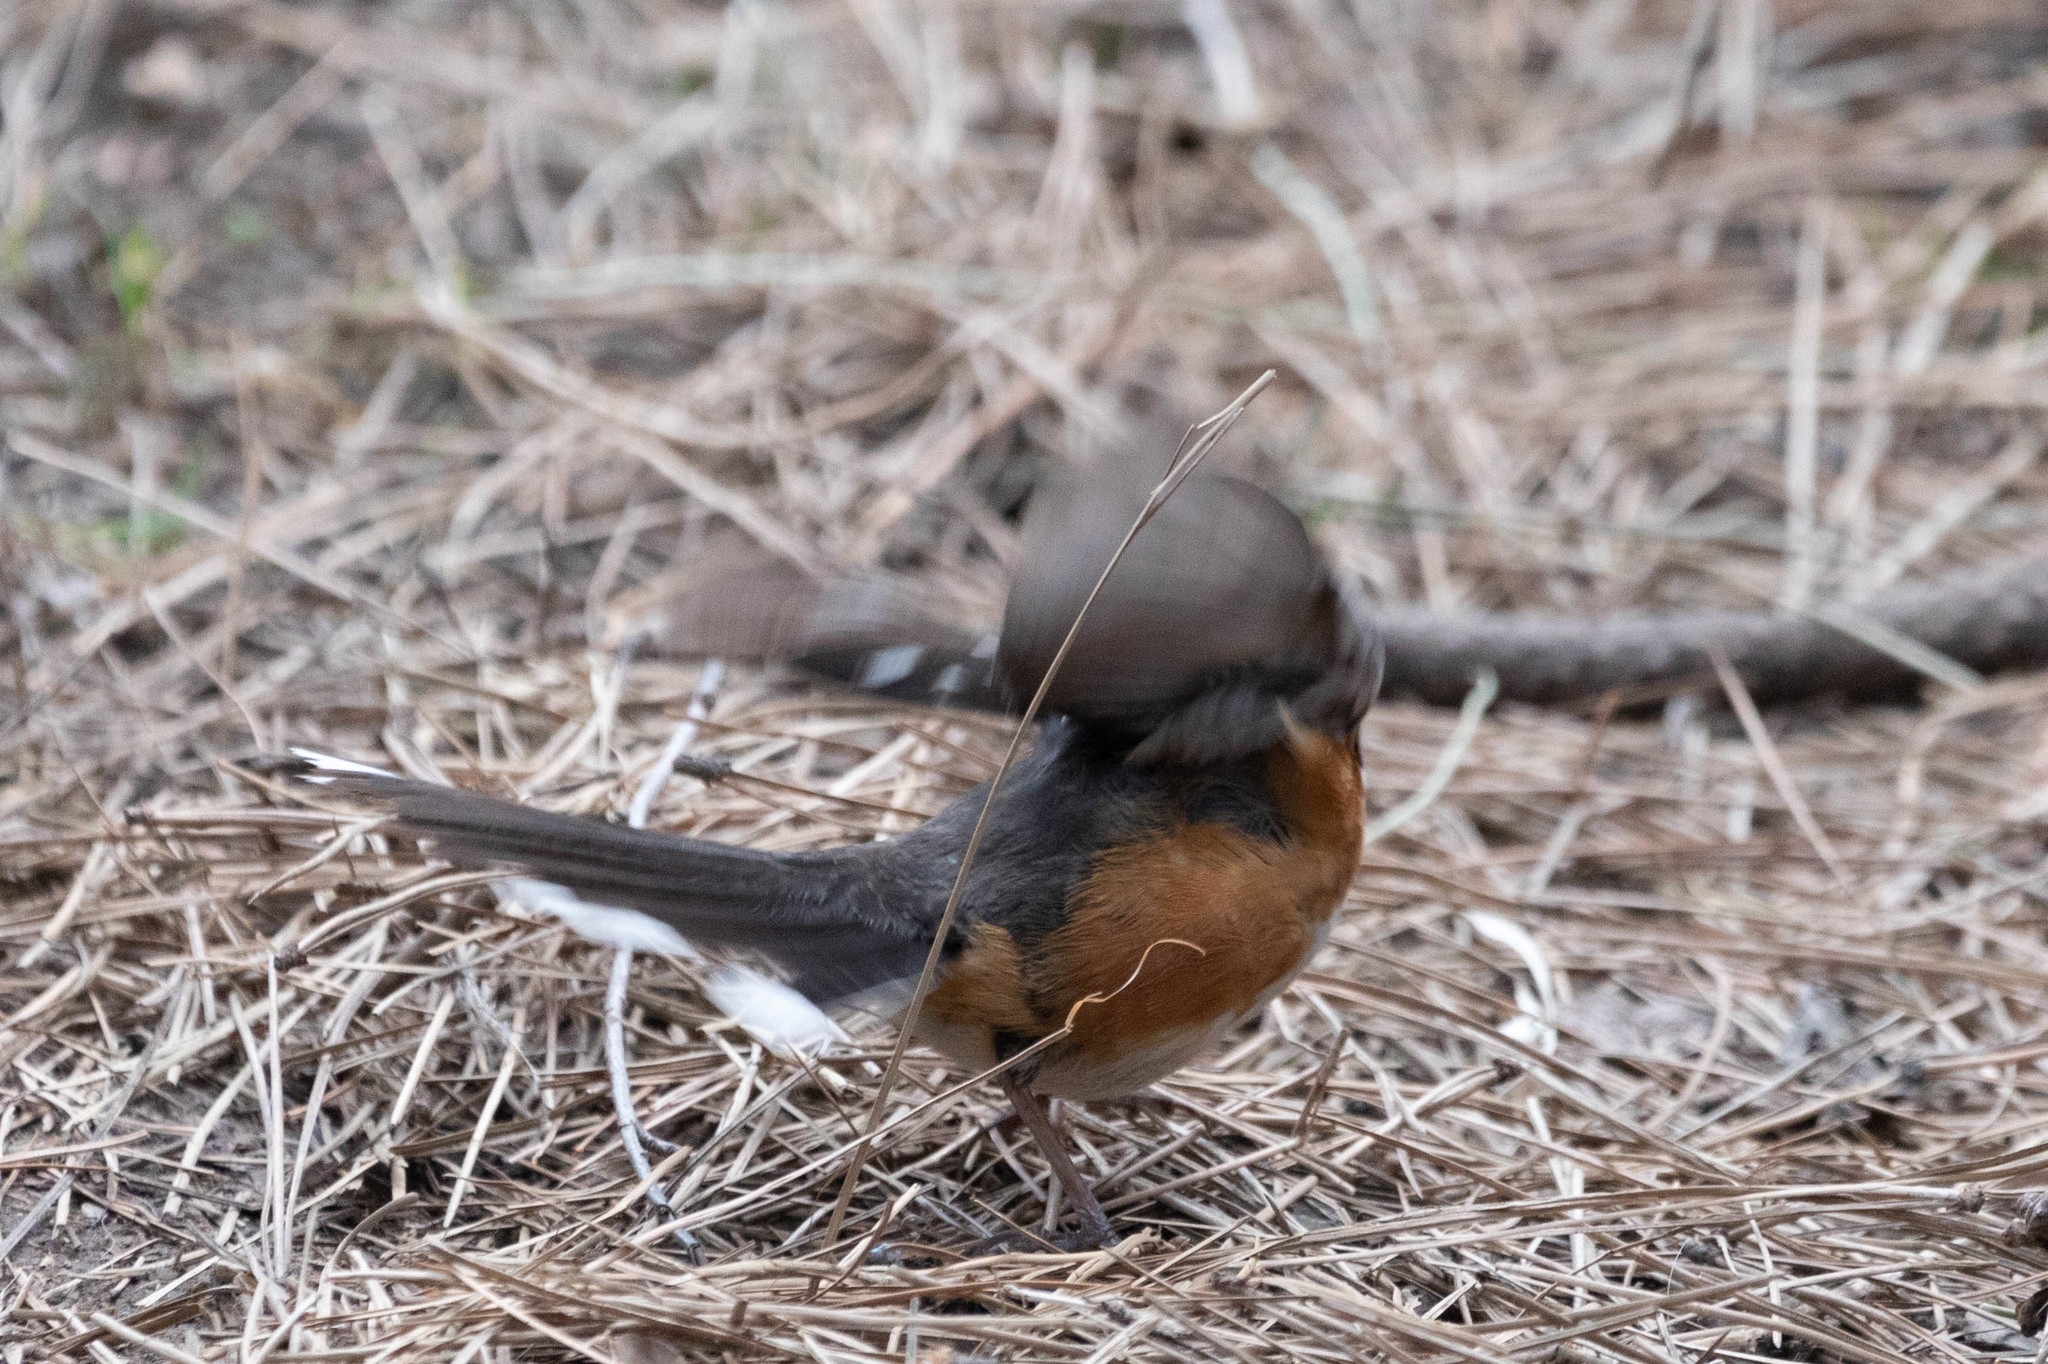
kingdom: Animalia
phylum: Chordata
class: Aves
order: Passeriformes
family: Passerellidae
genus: Pipilo
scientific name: Pipilo maculatus
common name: Spotted towhee
